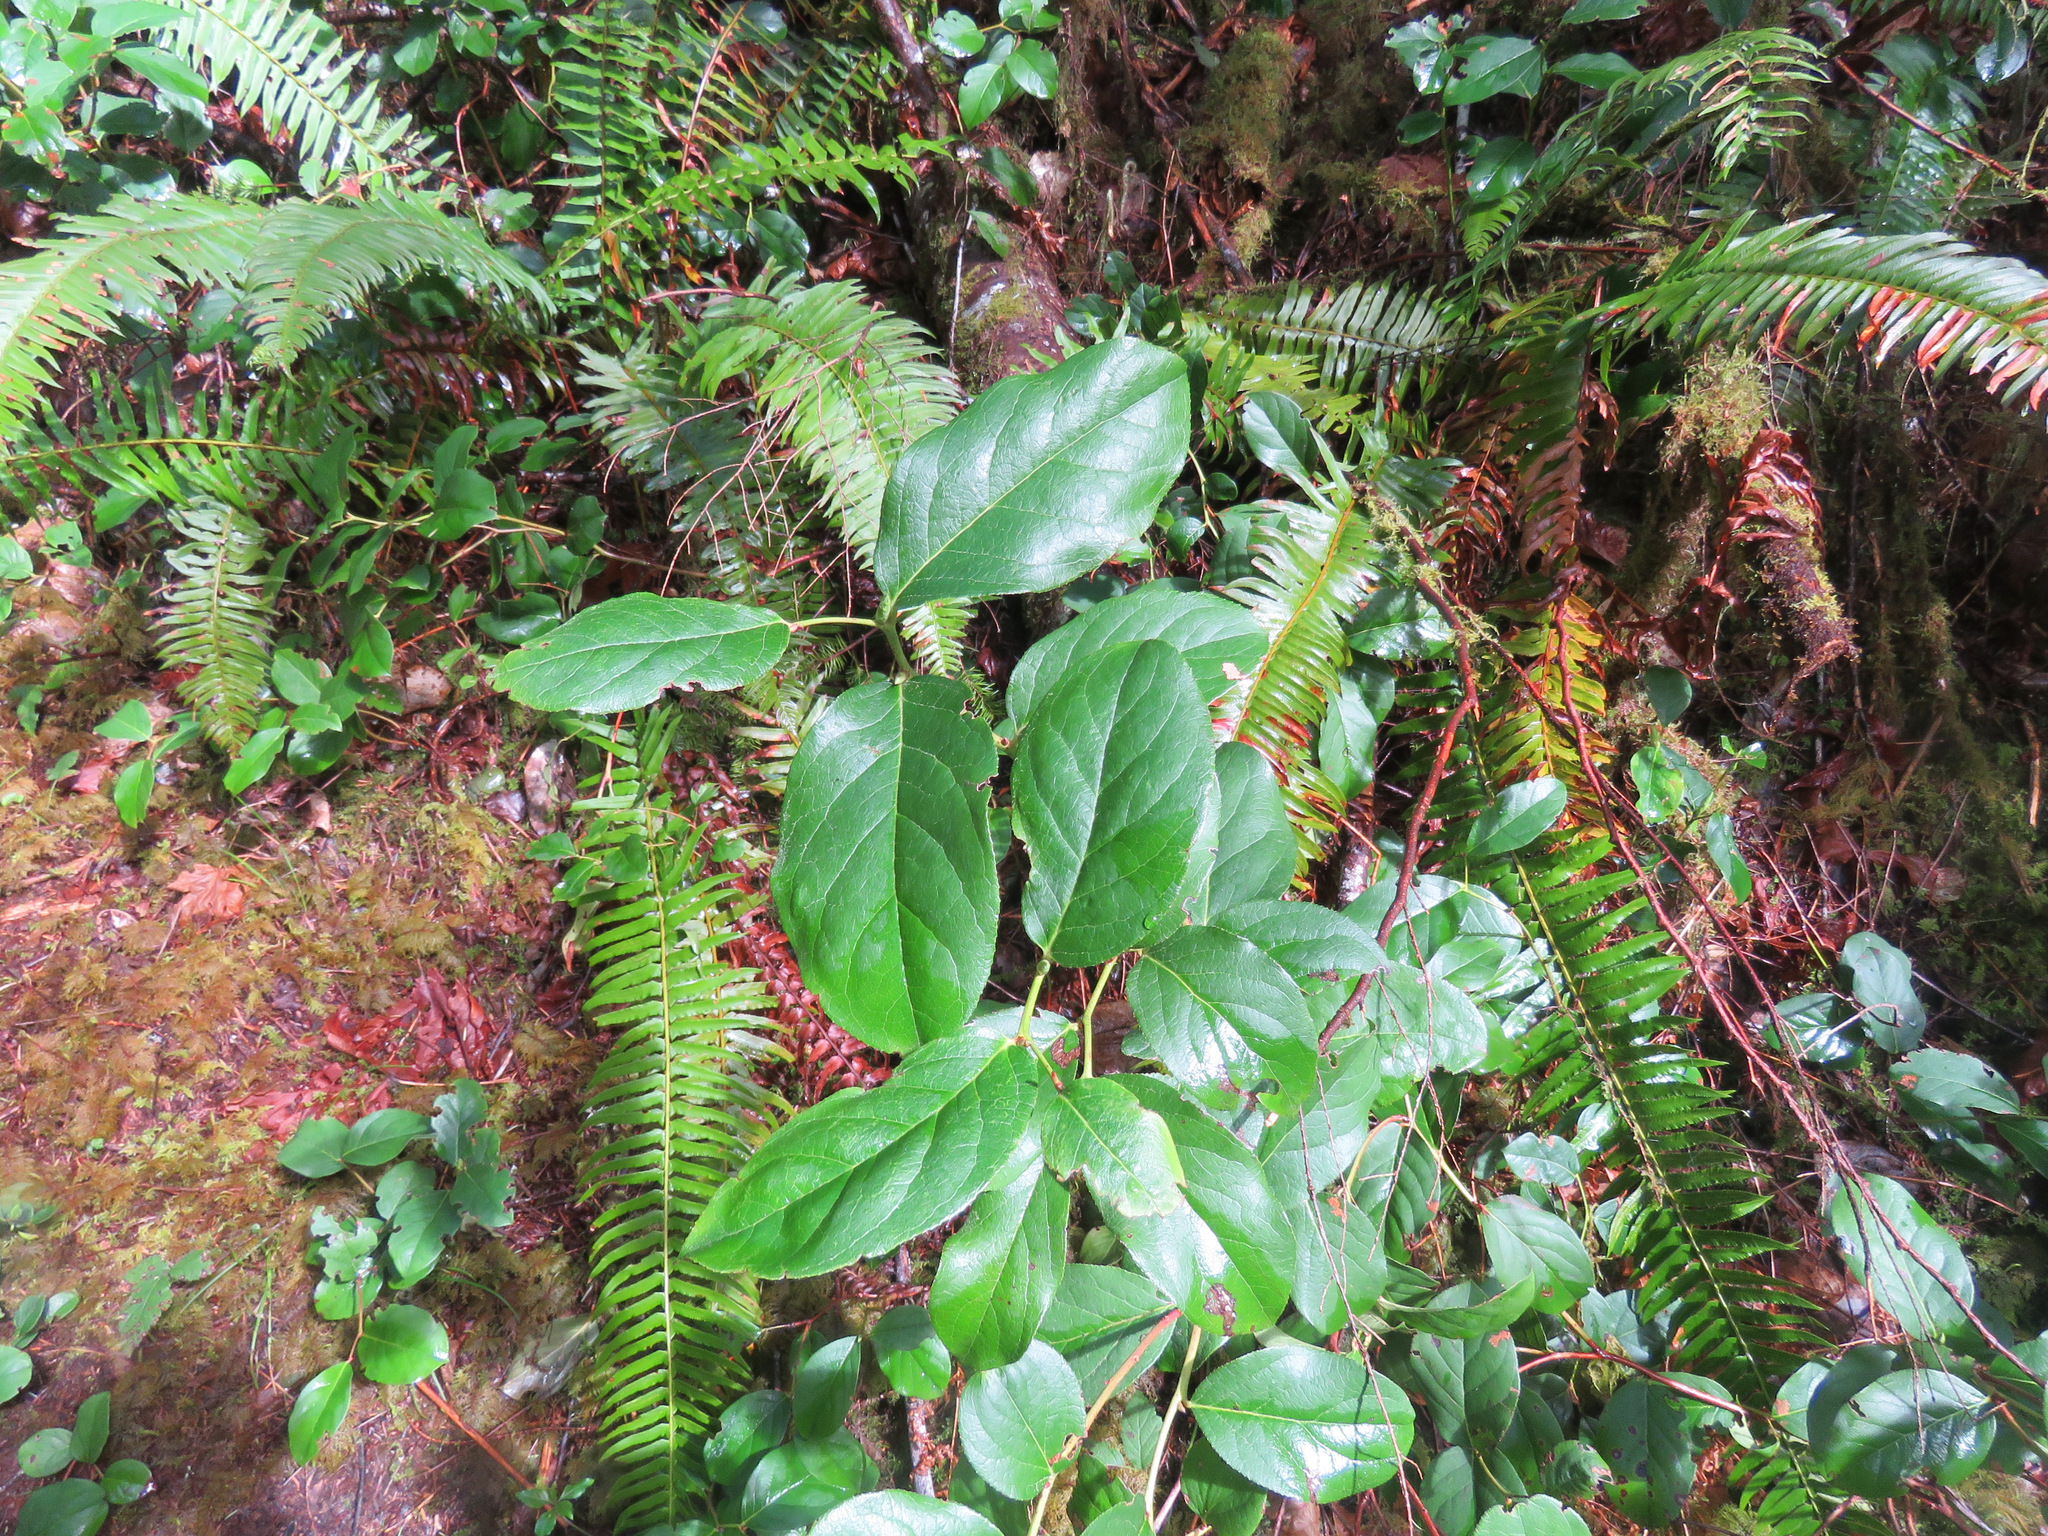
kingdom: Plantae
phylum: Tracheophyta
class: Magnoliopsida
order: Ericales
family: Ericaceae
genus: Gaultheria
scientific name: Gaultheria shallon
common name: Shallon
